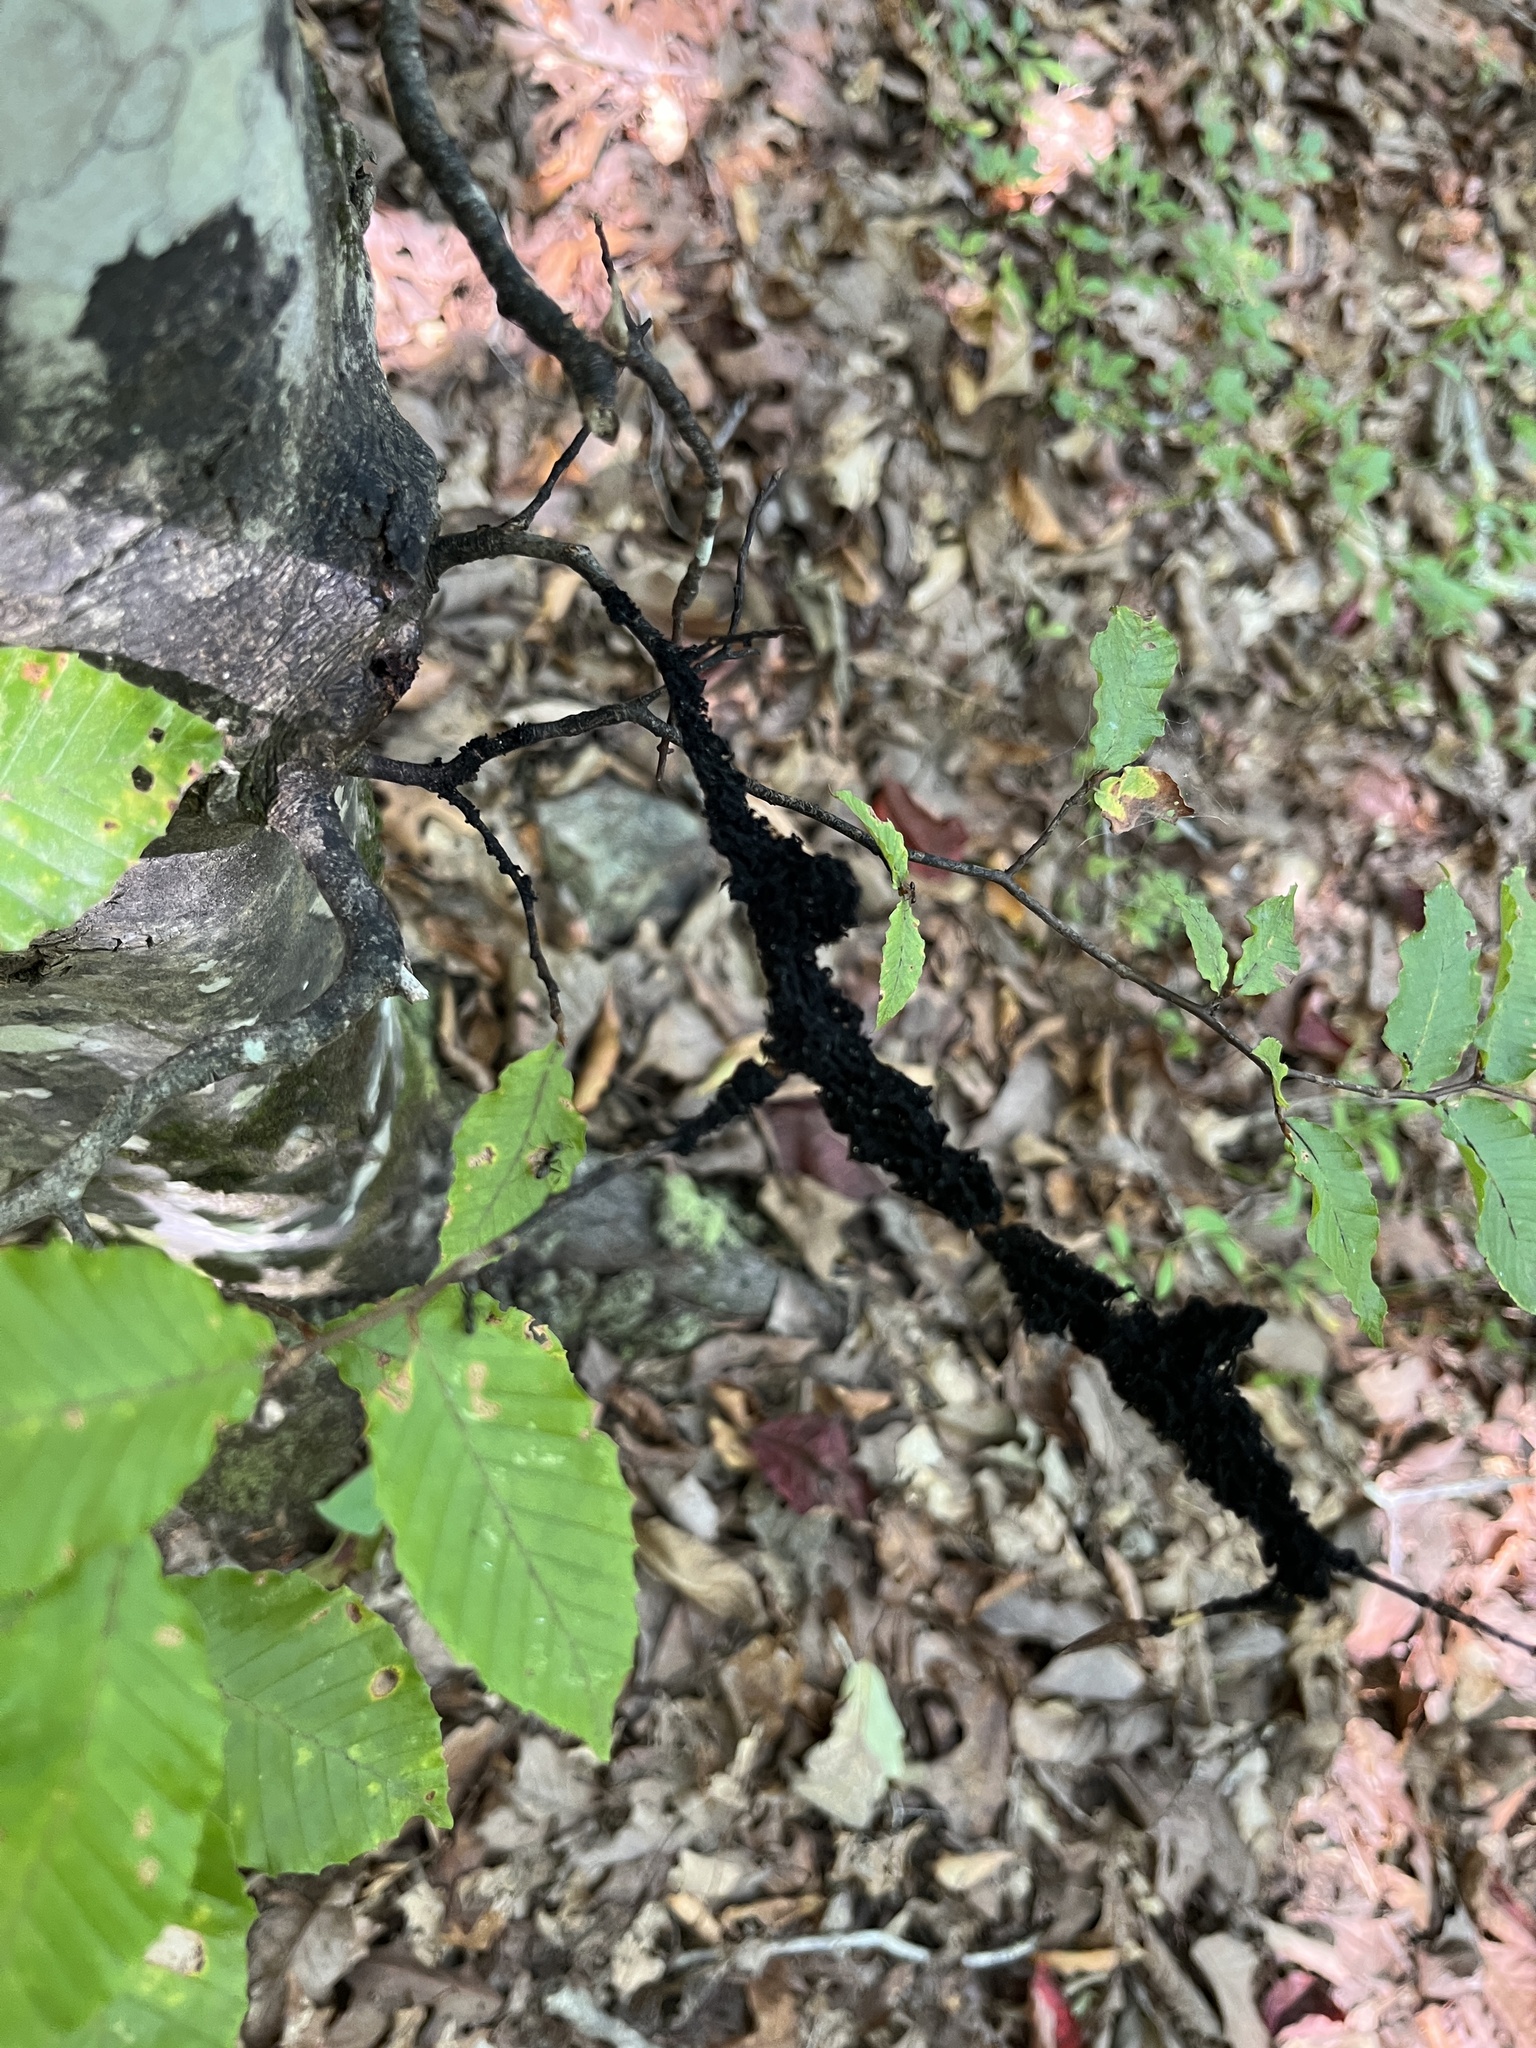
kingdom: Fungi
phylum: Ascomycota
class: Dothideomycetes
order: Capnodiales
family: Capnodiaceae
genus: Scorias
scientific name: Scorias spongiosa
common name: Black sooty mold
